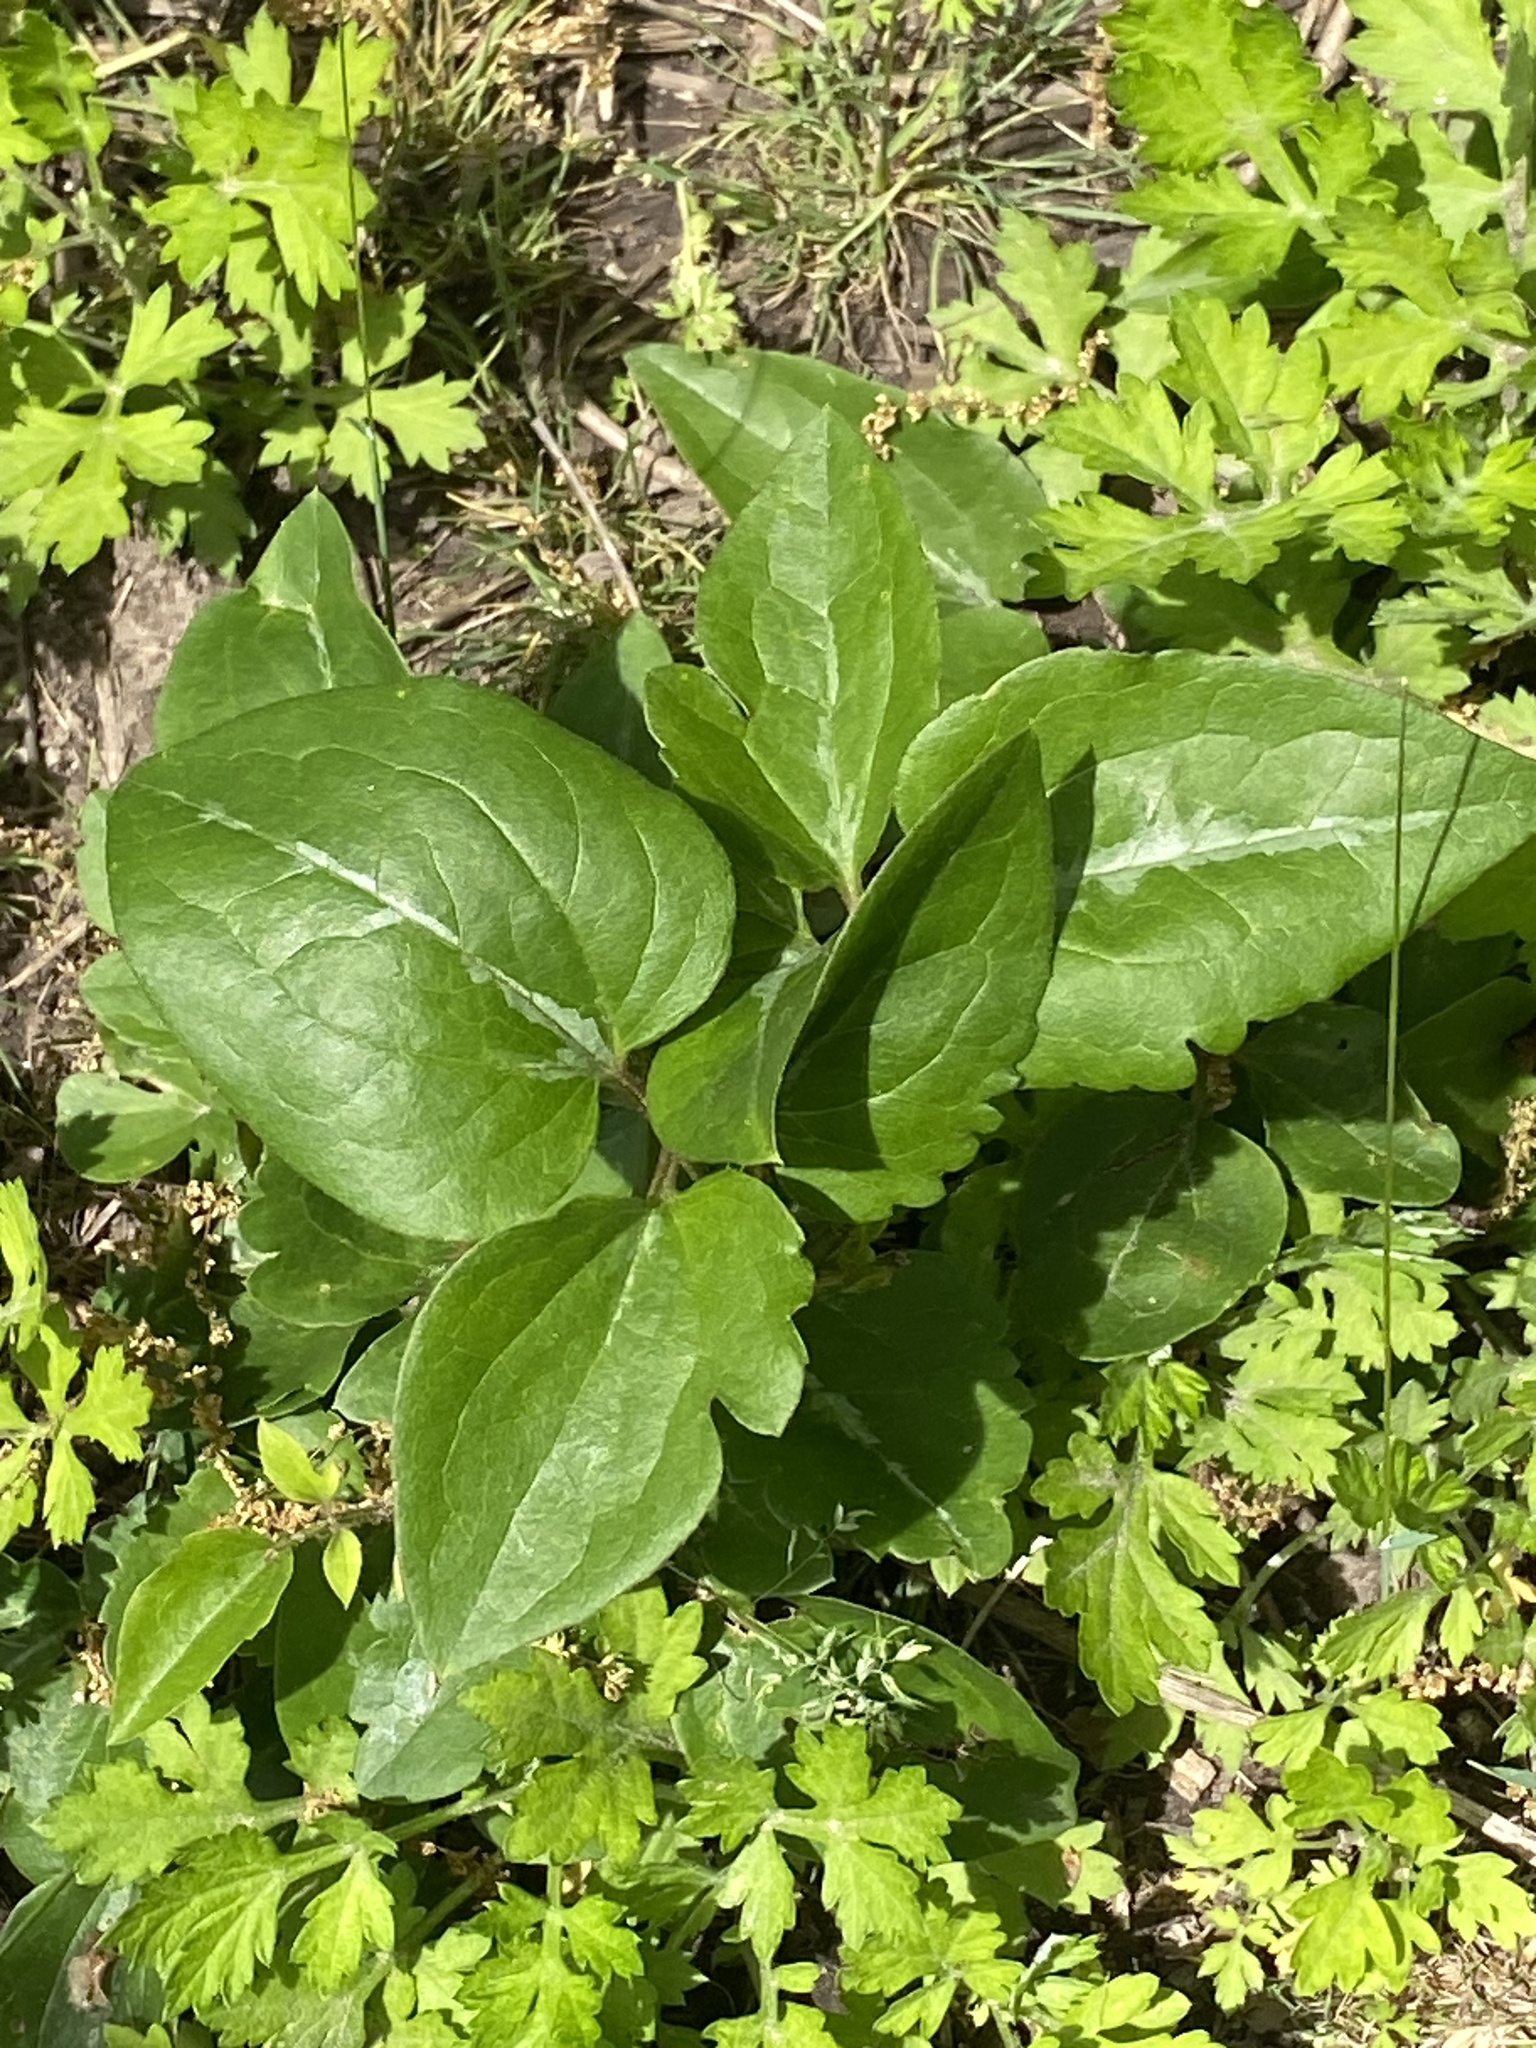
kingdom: Plantae
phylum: Tracheophyta
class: Magnoliopsida
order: Ranunculales
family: Ranunculaceae
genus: Clematis
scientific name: Clematis terniflora
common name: Sweet autumn clematis
